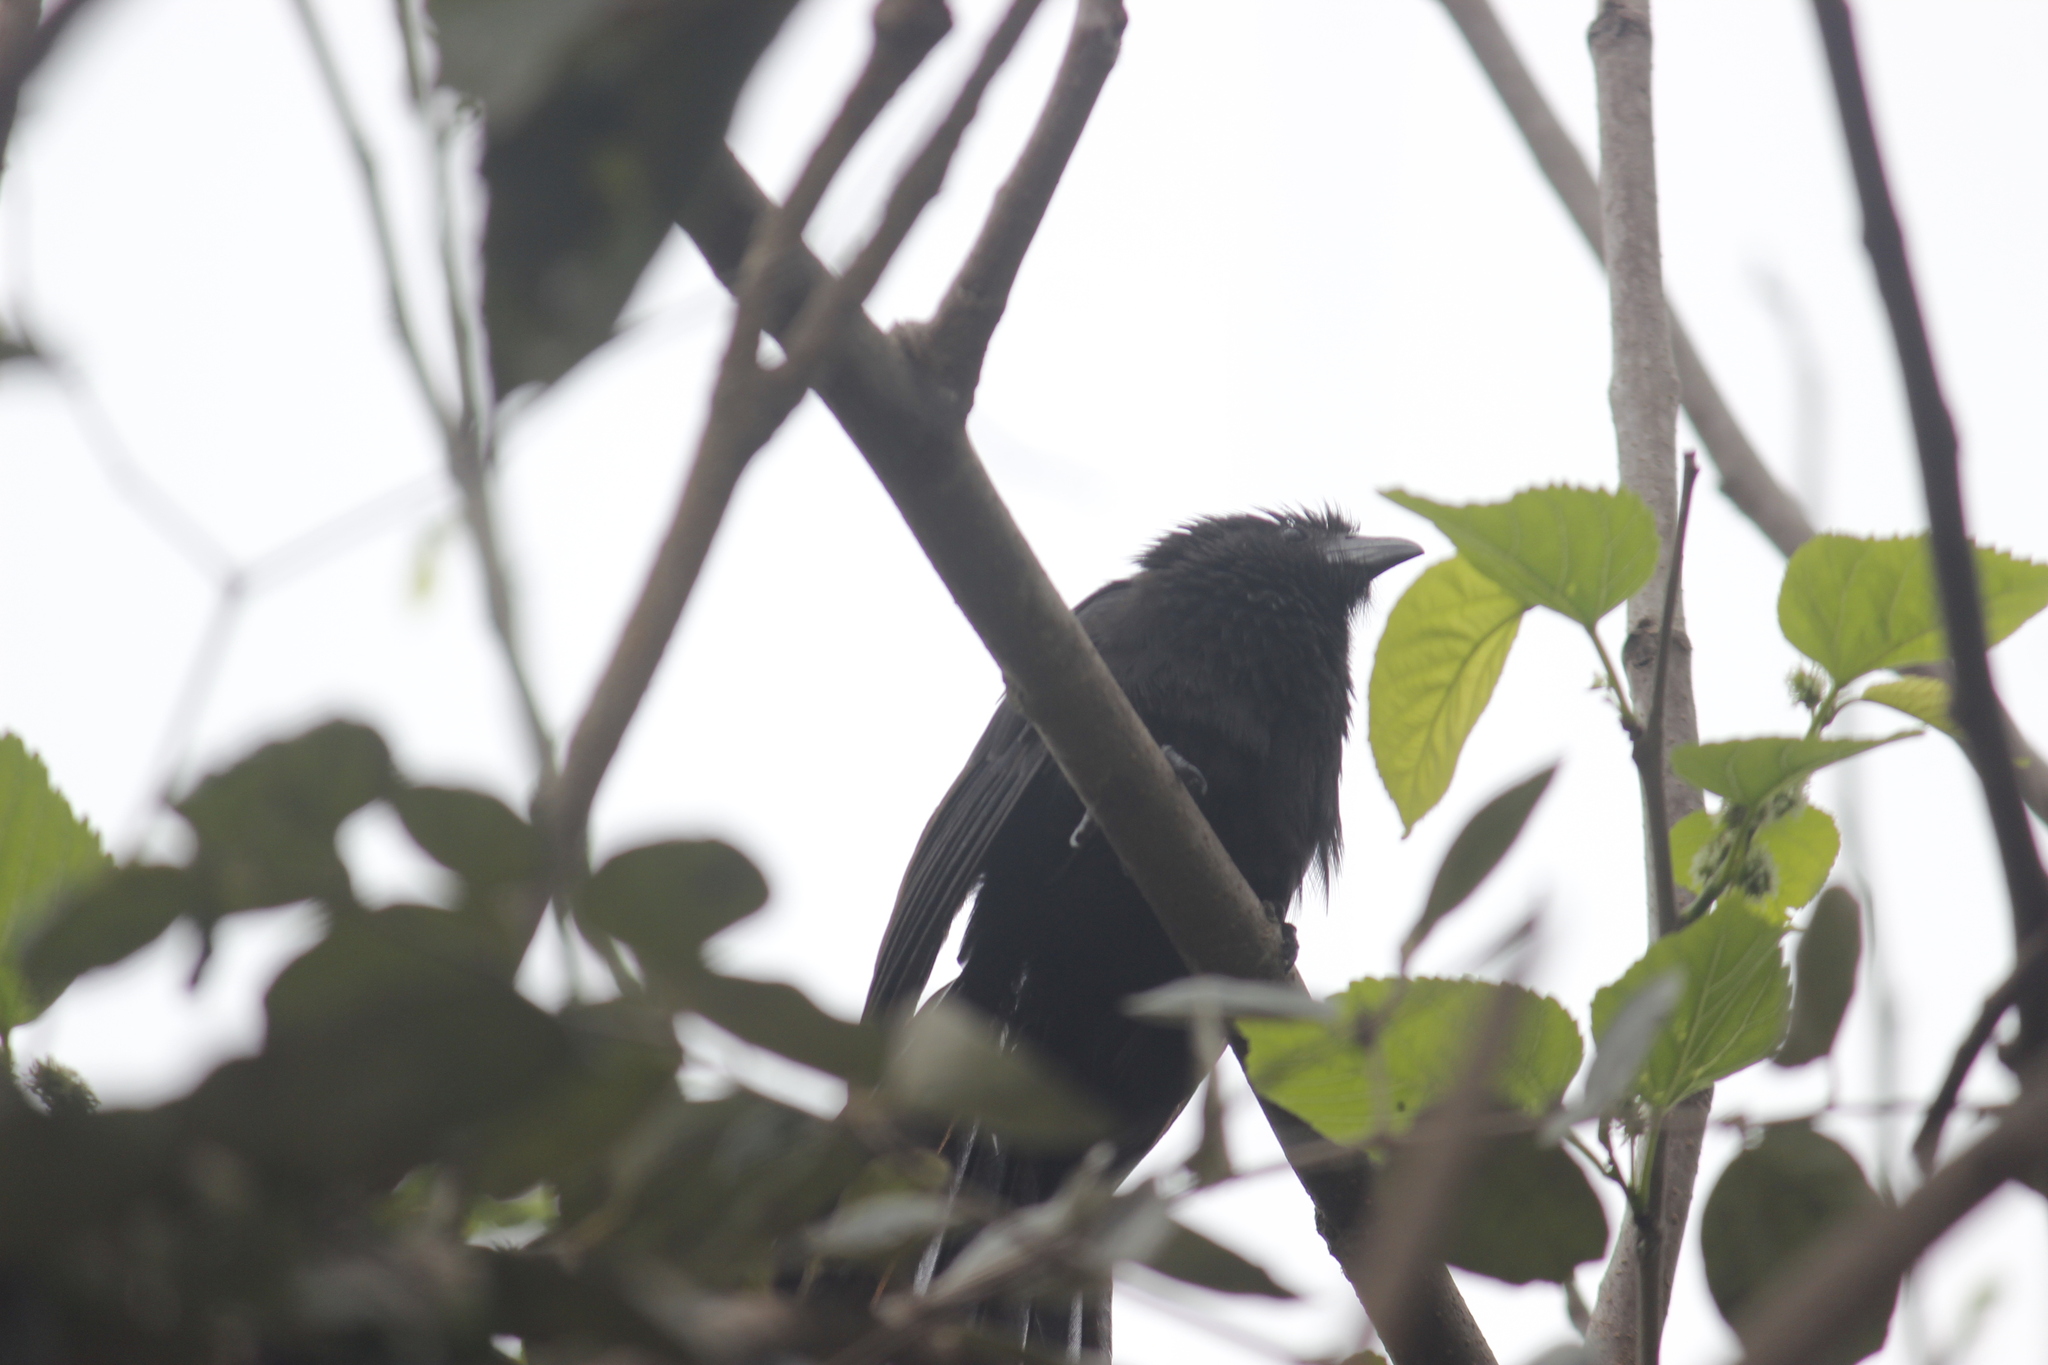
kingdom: Animalia
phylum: Chordata
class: Aves
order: Cuculiformes
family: Cuculidae
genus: Crotophaga
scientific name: Crotophaga sulcirostris
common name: Groove-billed ani
